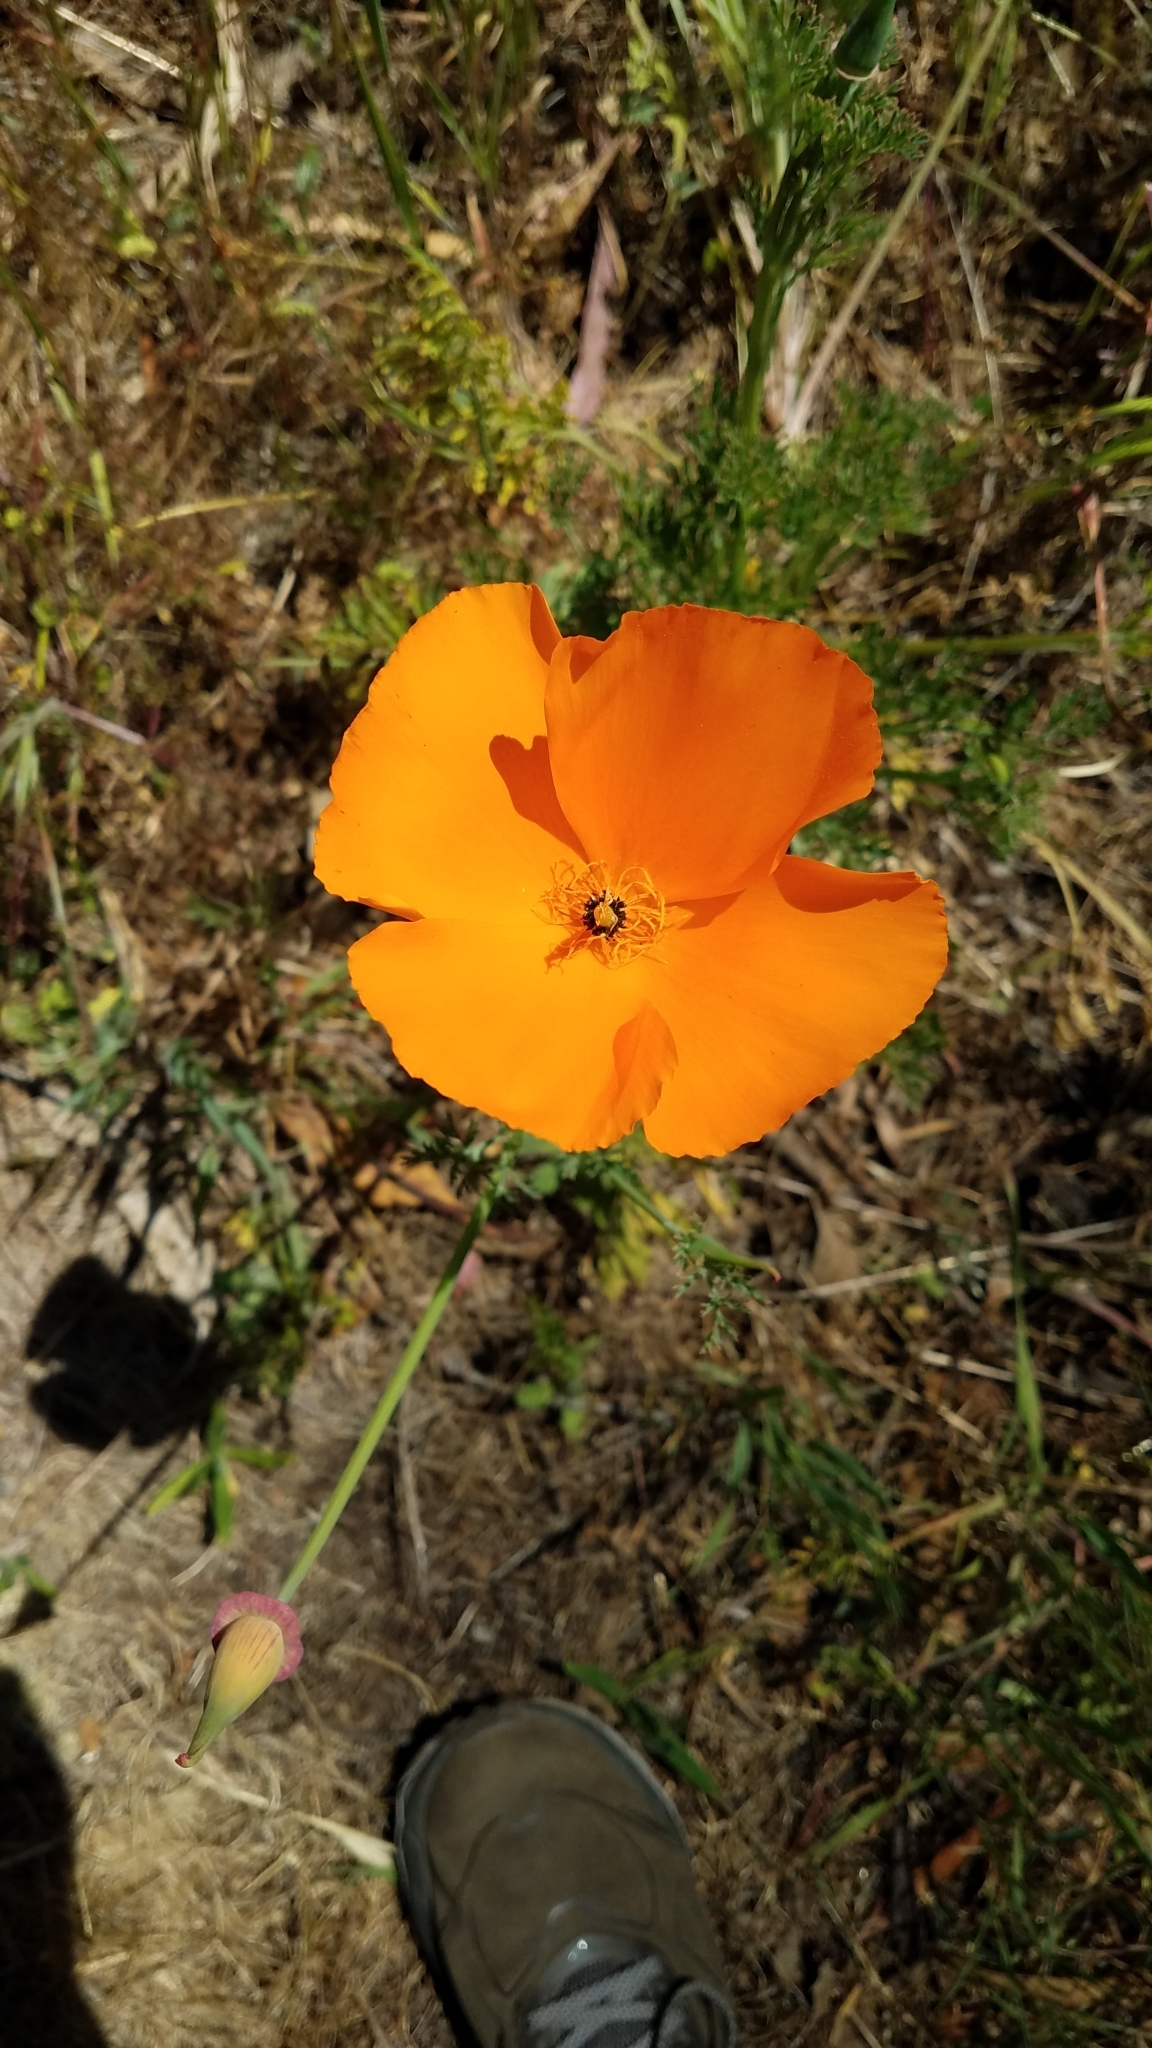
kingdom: Plantae
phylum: Tracheophyta
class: Magnoliopsida
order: Ranunculales
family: Papaveraceae
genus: Eschscholzia
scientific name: Eschscholzia californica
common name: California poppy
